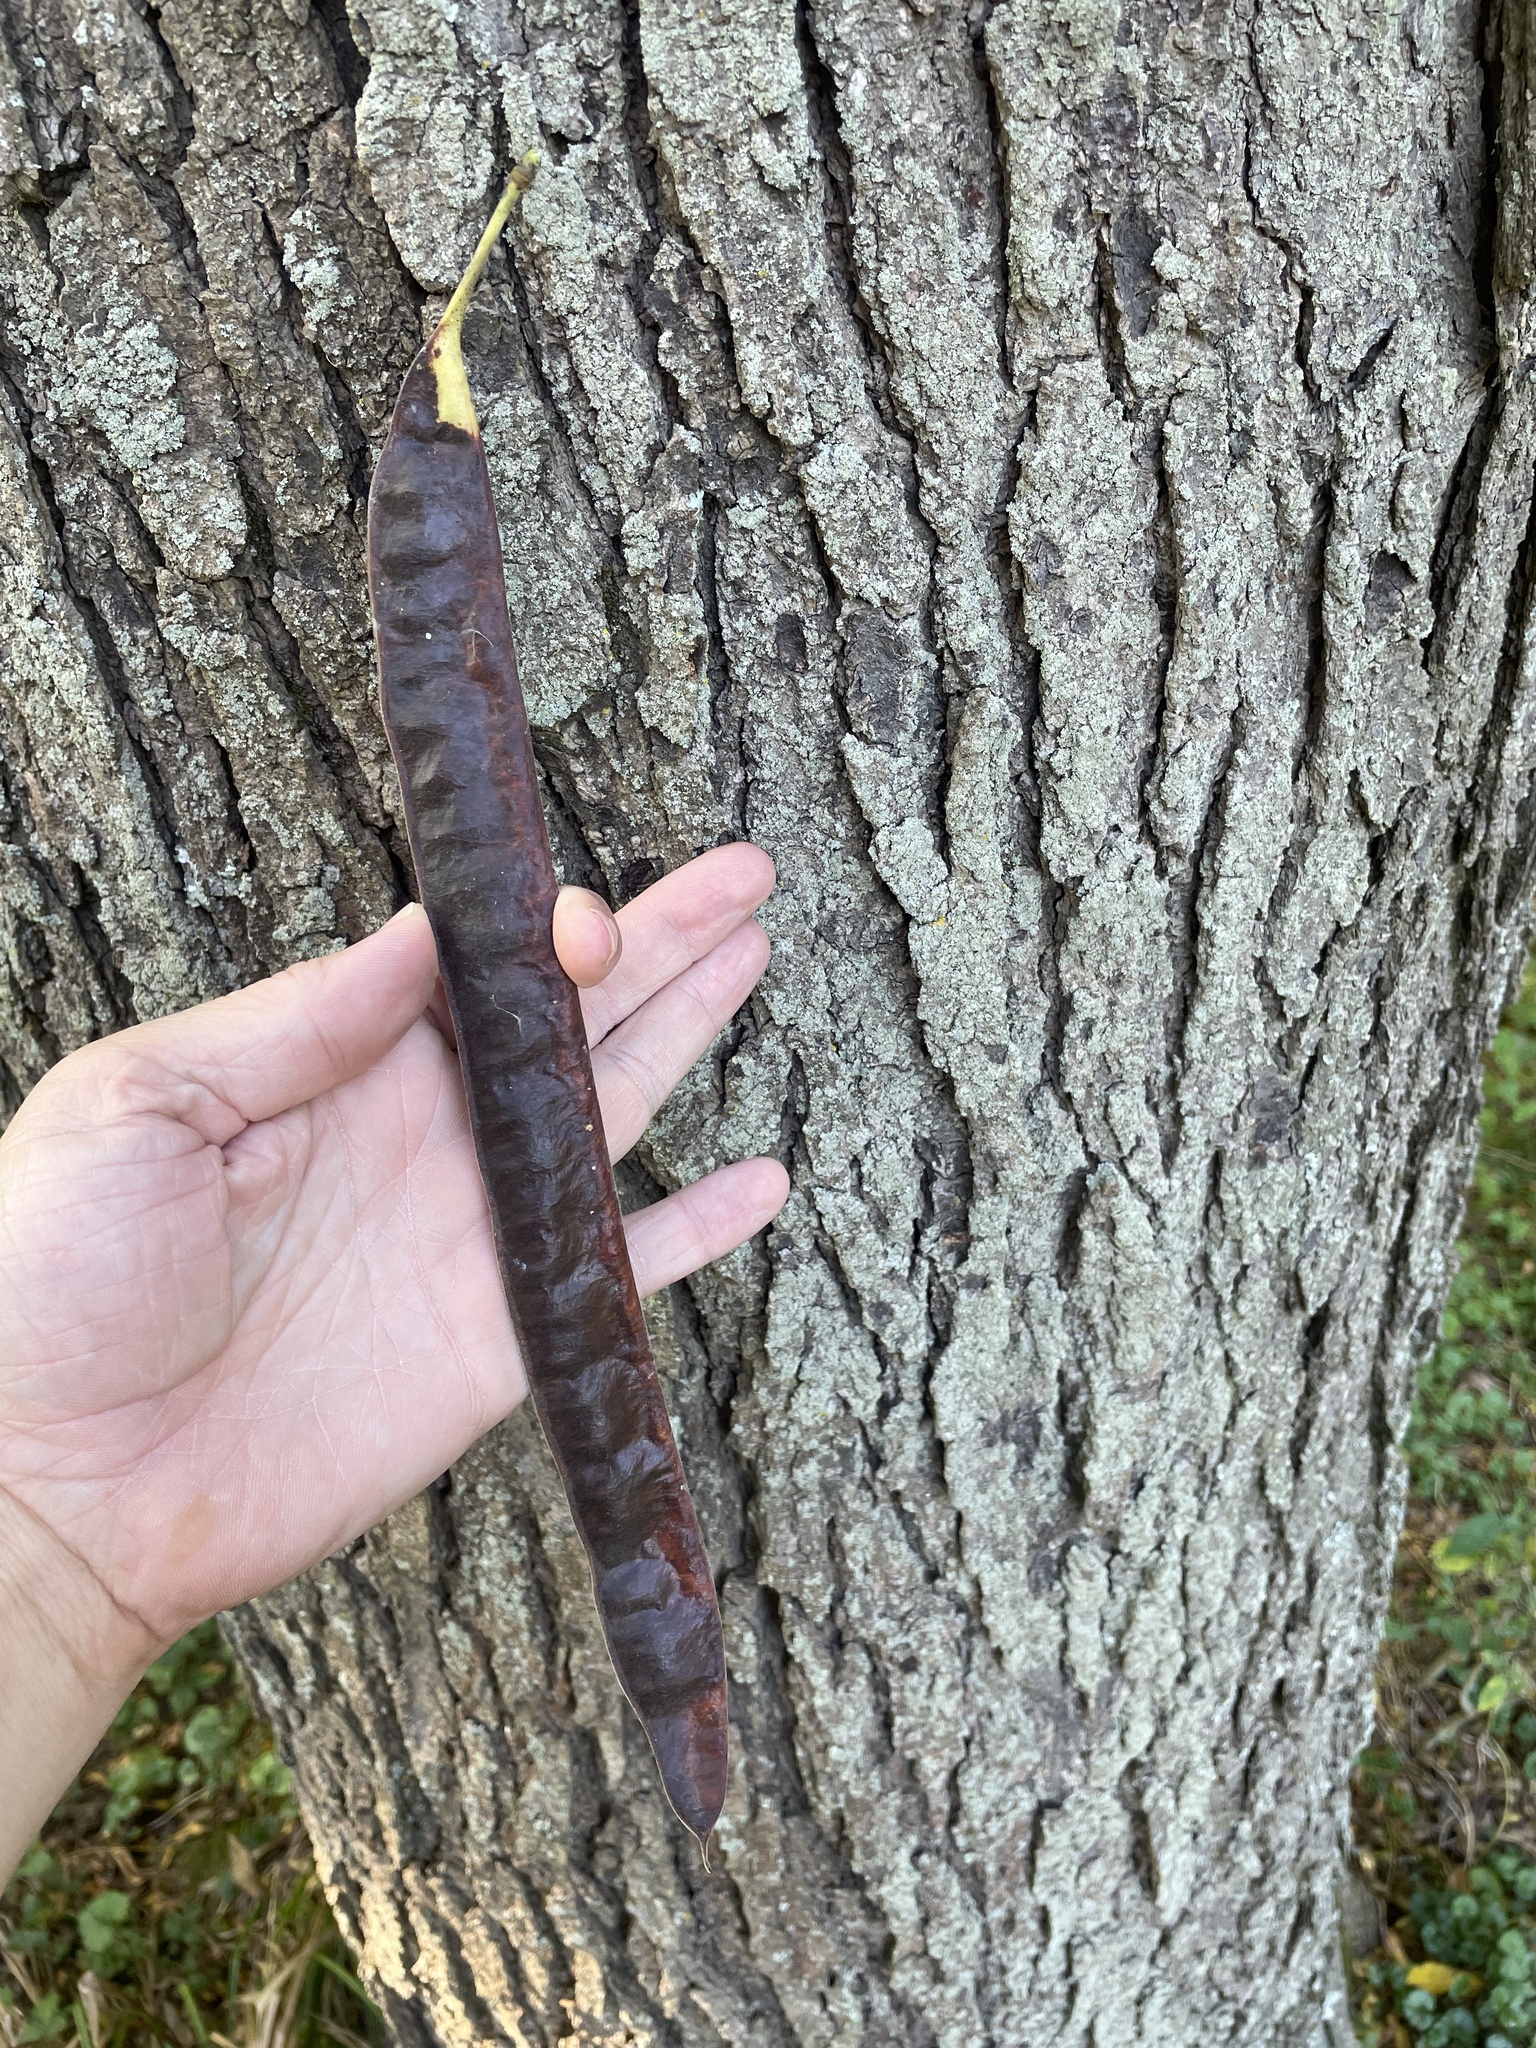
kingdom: Plantae
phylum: Tracheophyta
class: Magnoliopsida
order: Fabales
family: Fabaceae
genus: Gleditsia
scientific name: Gleditsia triacanthos
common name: Common honeylocust
